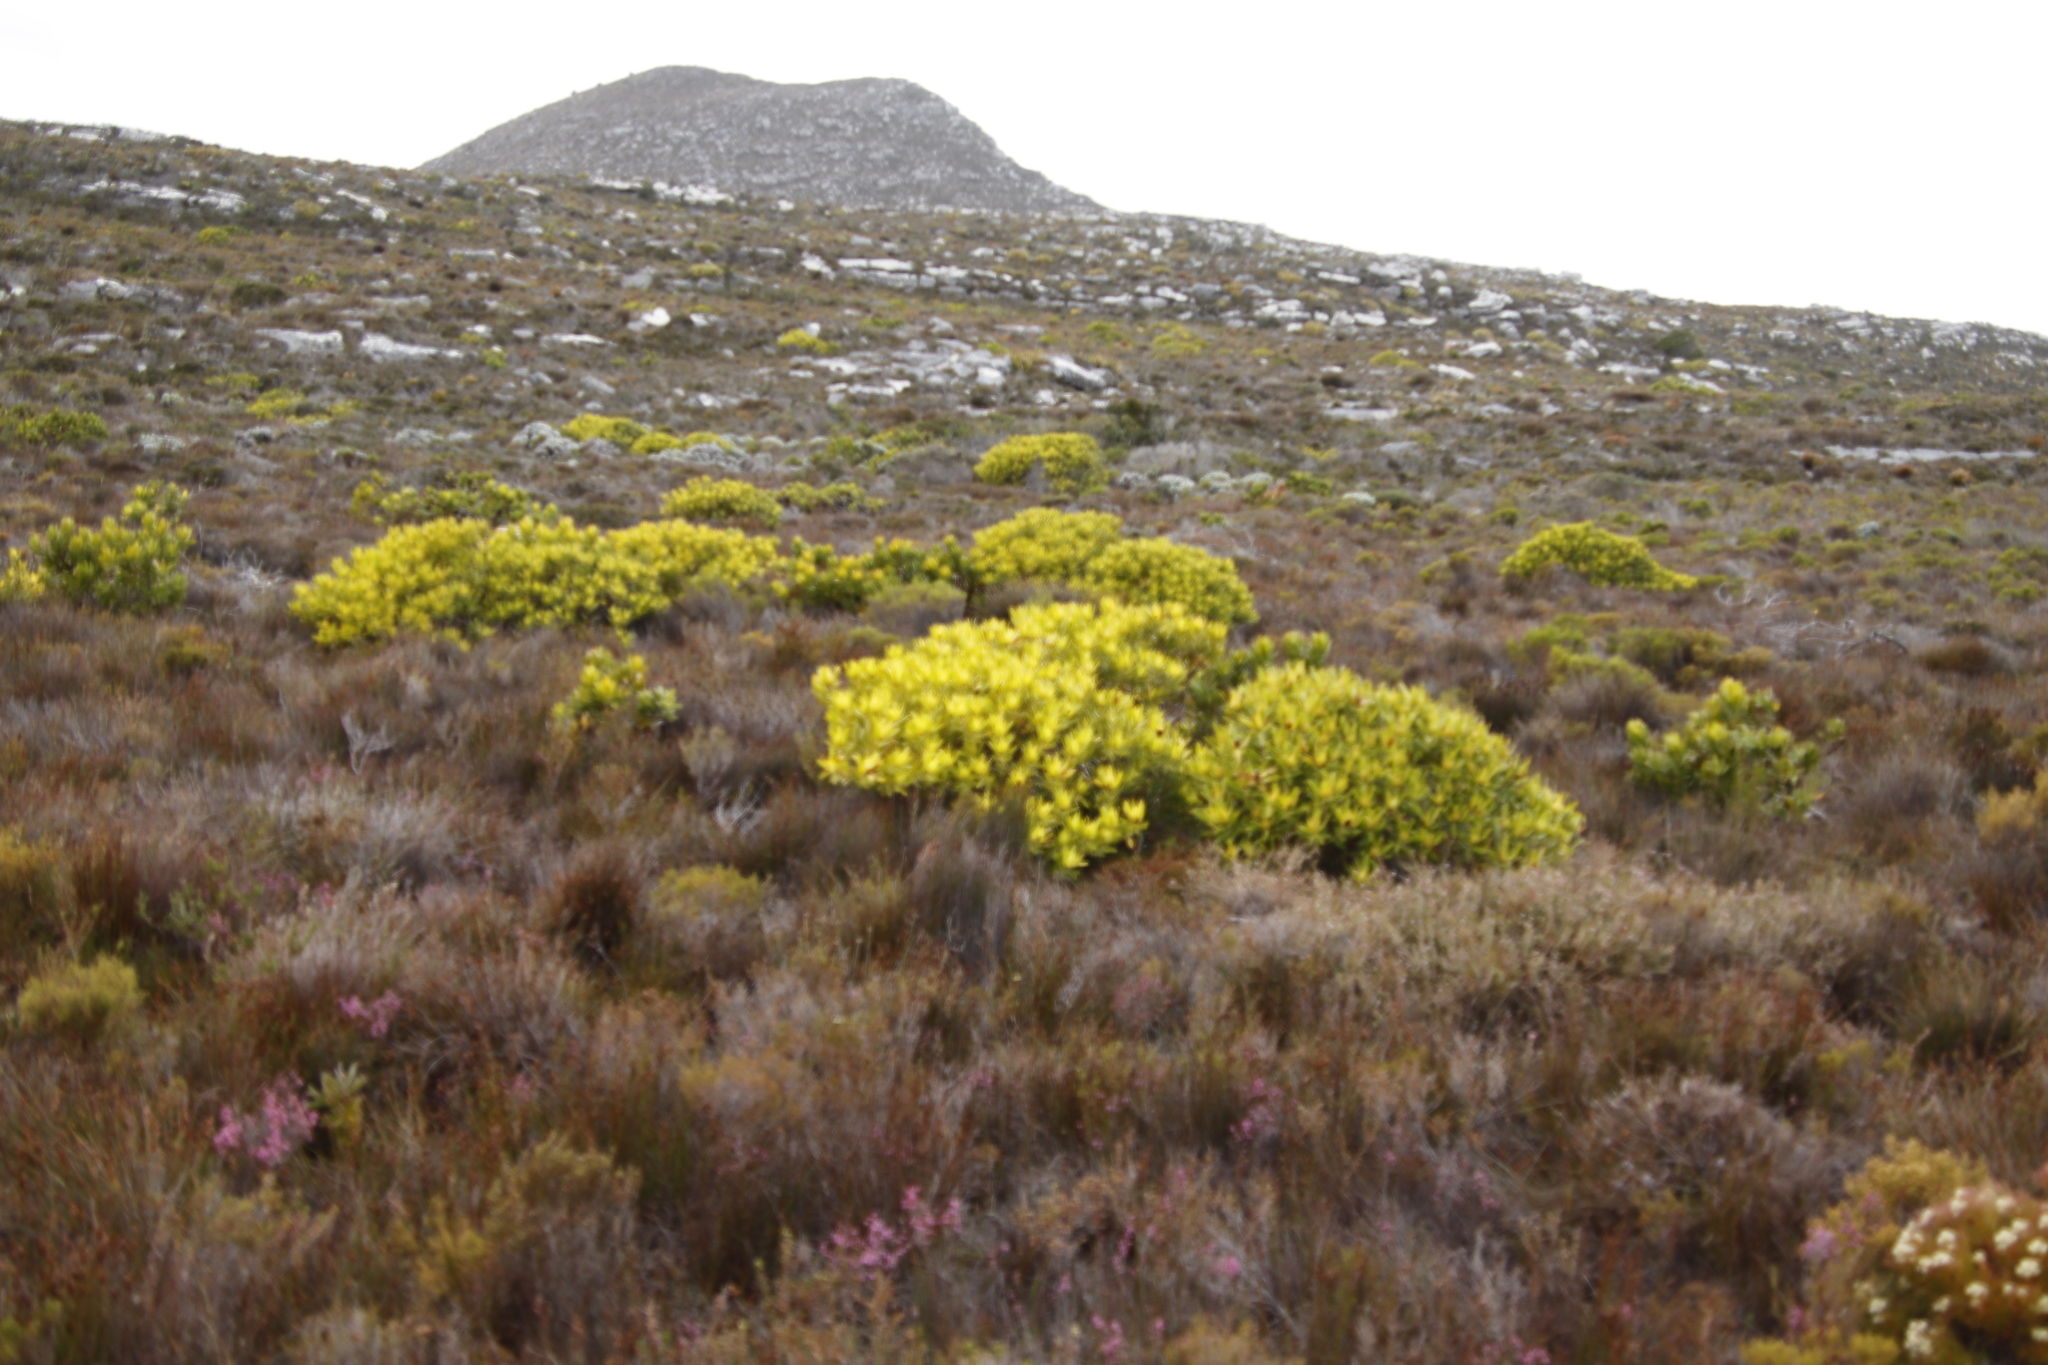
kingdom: Plantae
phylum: Tracheophyta
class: Magnoliopsida
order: Proteales
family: Proteaceae
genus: Leucadendron
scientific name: Leucadendron laureolum
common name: Golden sunshinebush
